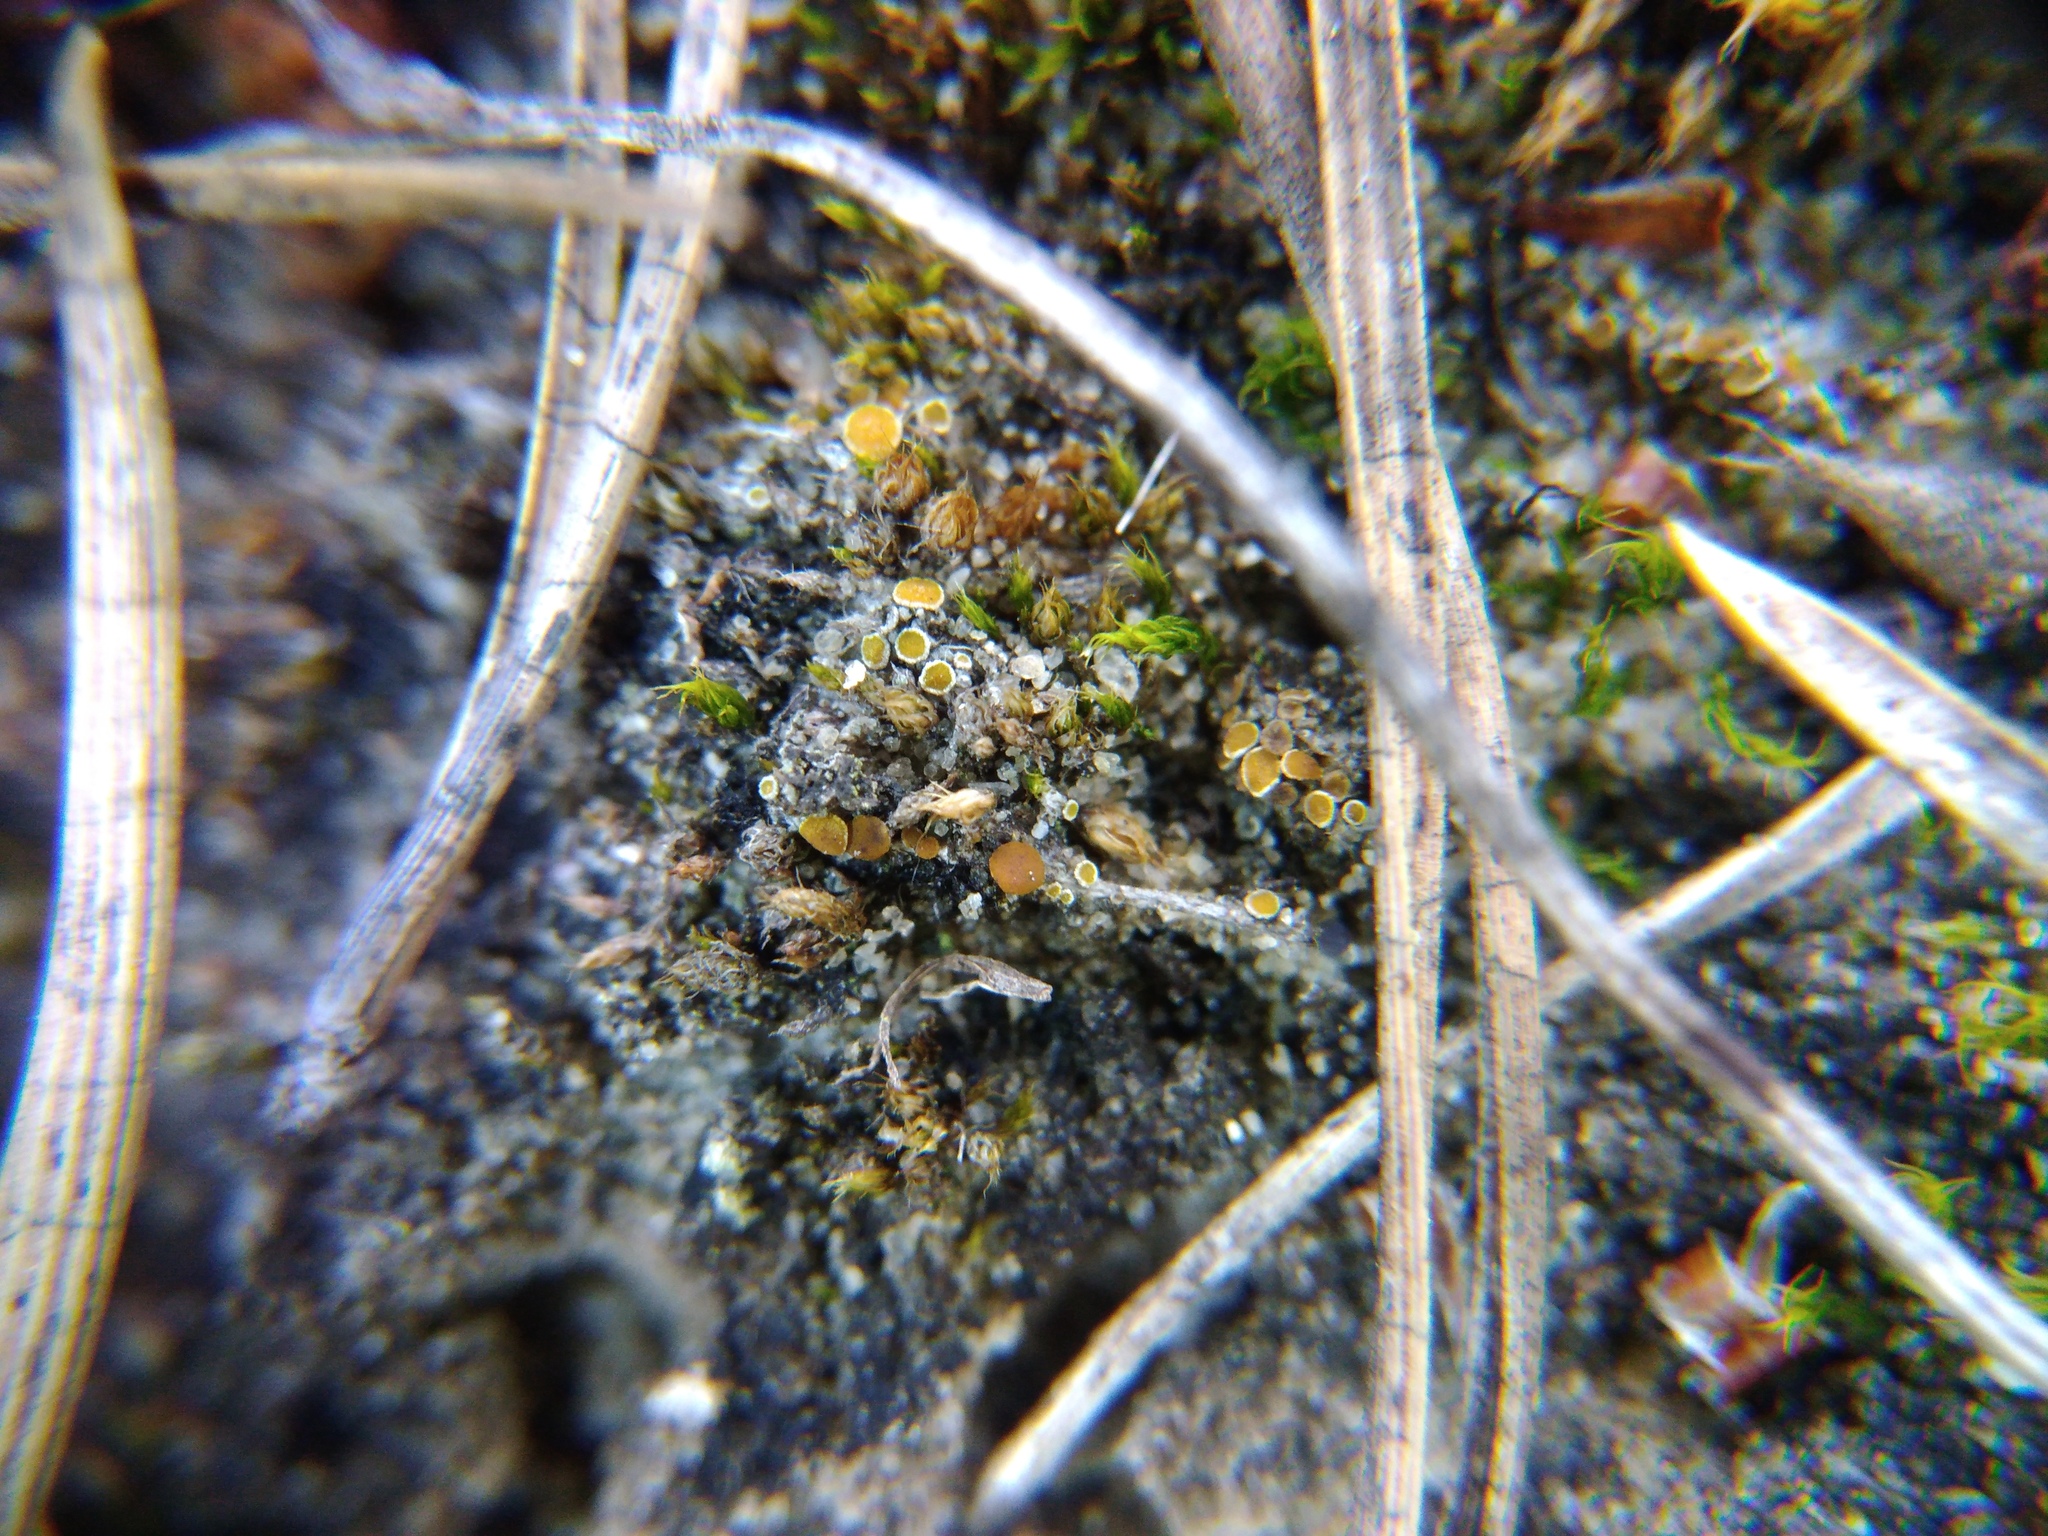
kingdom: Fungi
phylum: Ascomycota
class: Lecanoromycetes
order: Teloschistales
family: Teloschistaceae
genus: Caloplaca
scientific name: Caloplaca cerina
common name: Gray-rimmed firedot lichen
